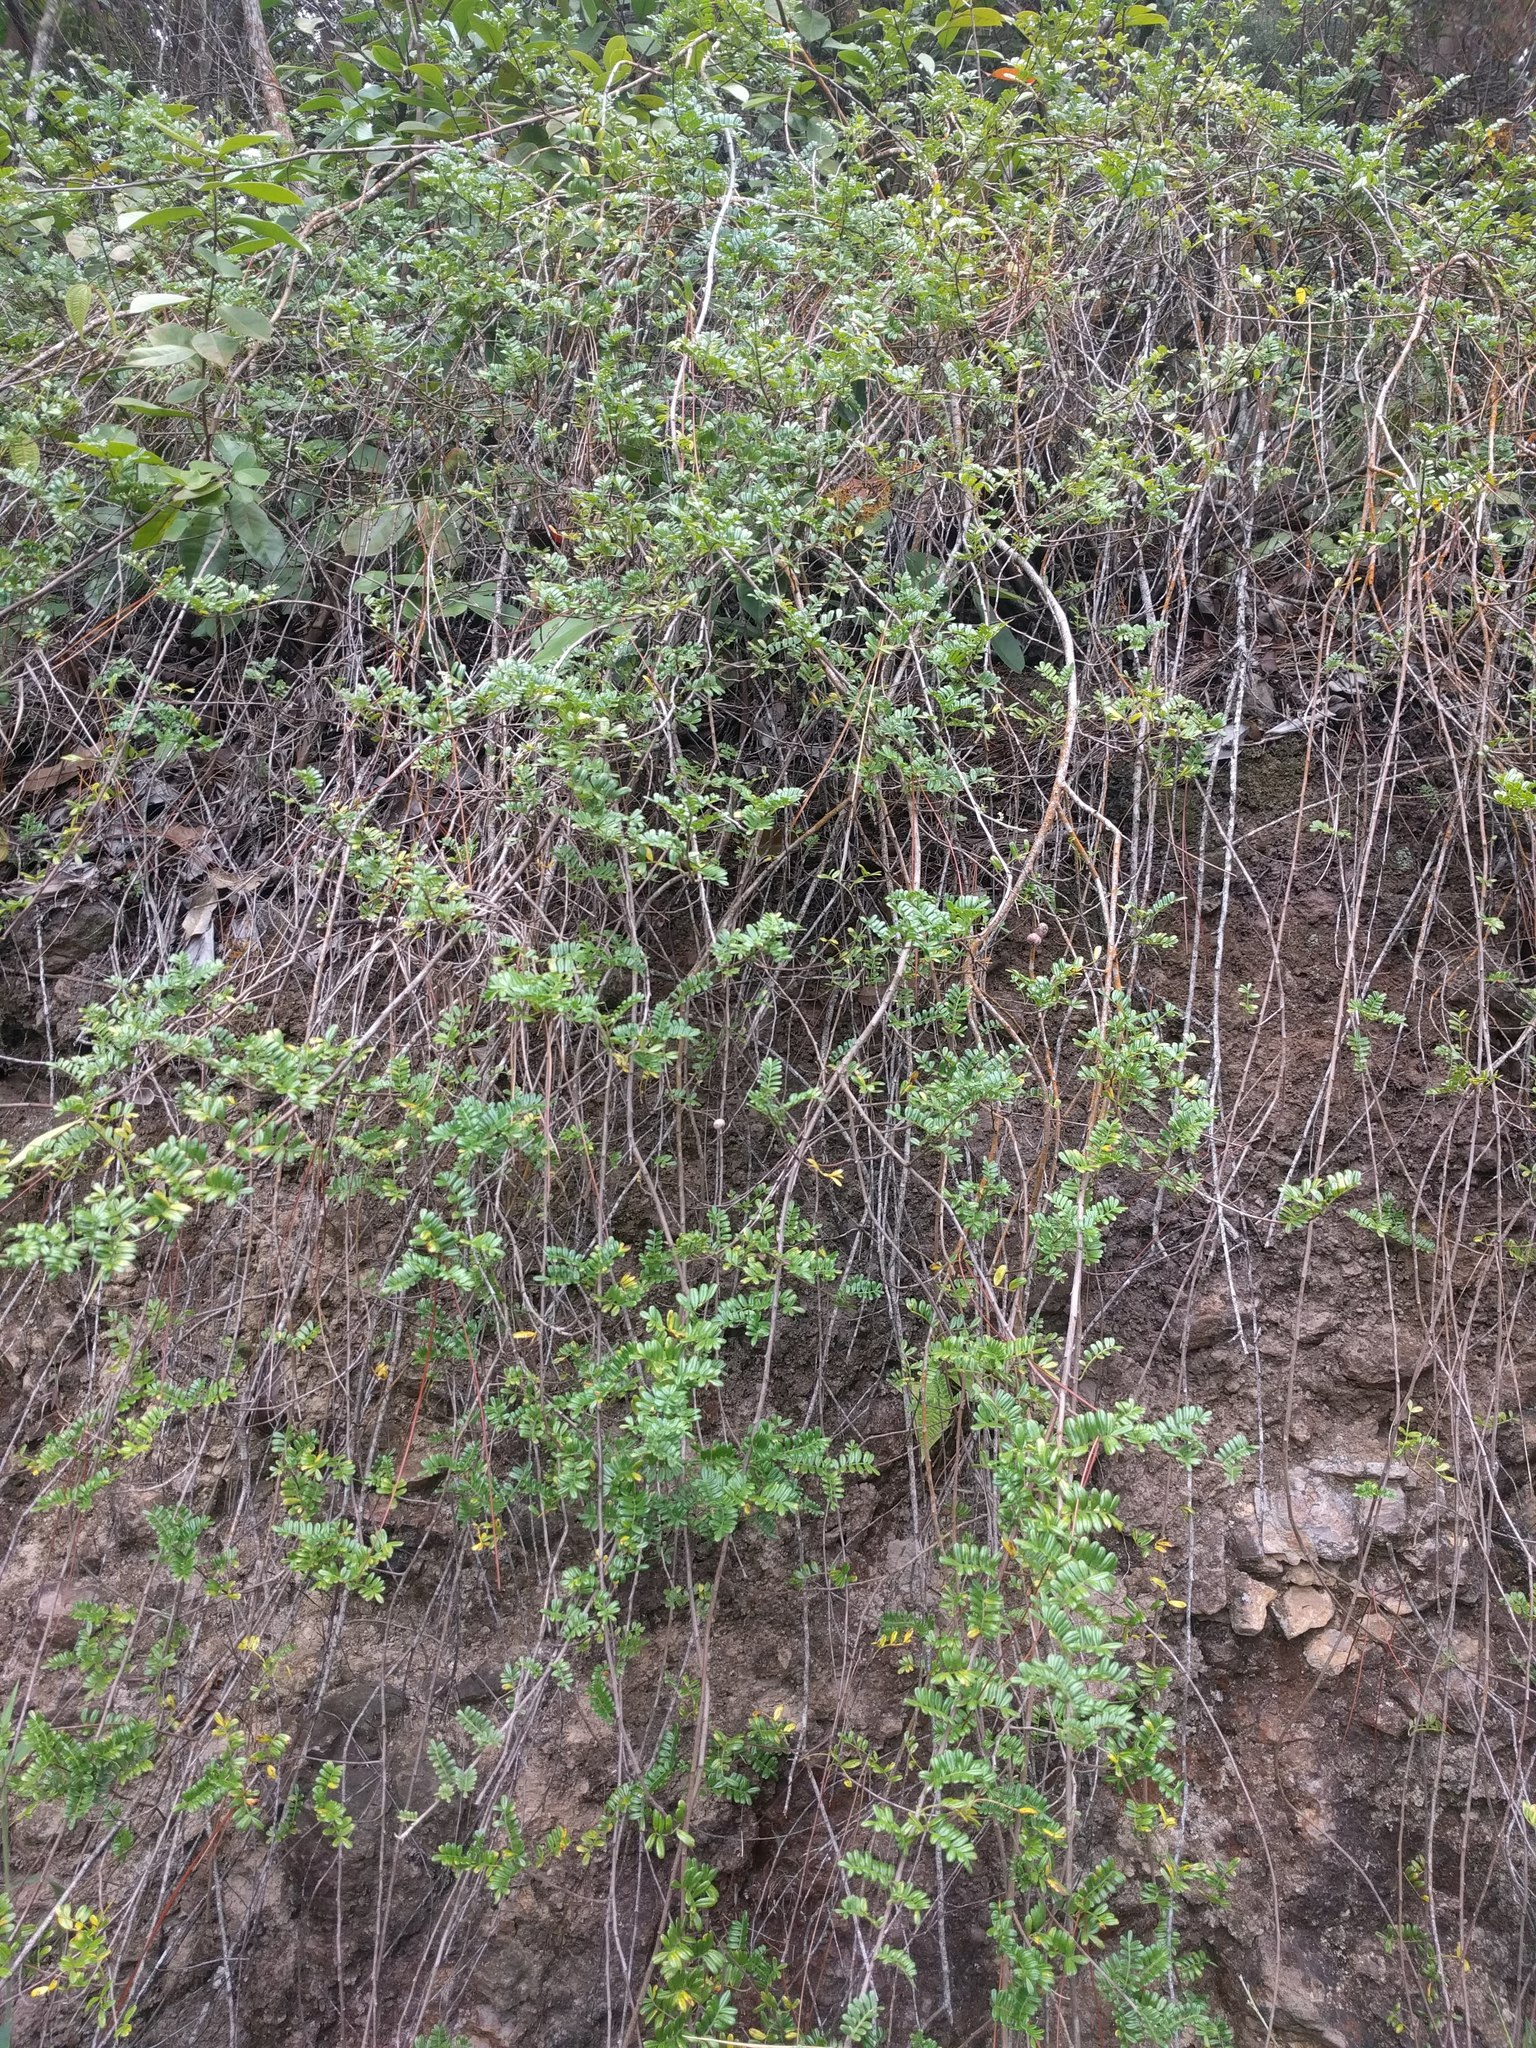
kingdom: Plantae
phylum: Tracheophyta
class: Magnoliopsida
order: Rosales
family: Rosaceae
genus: Osteomeles
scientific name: Osteomeles anthyllidifolia
